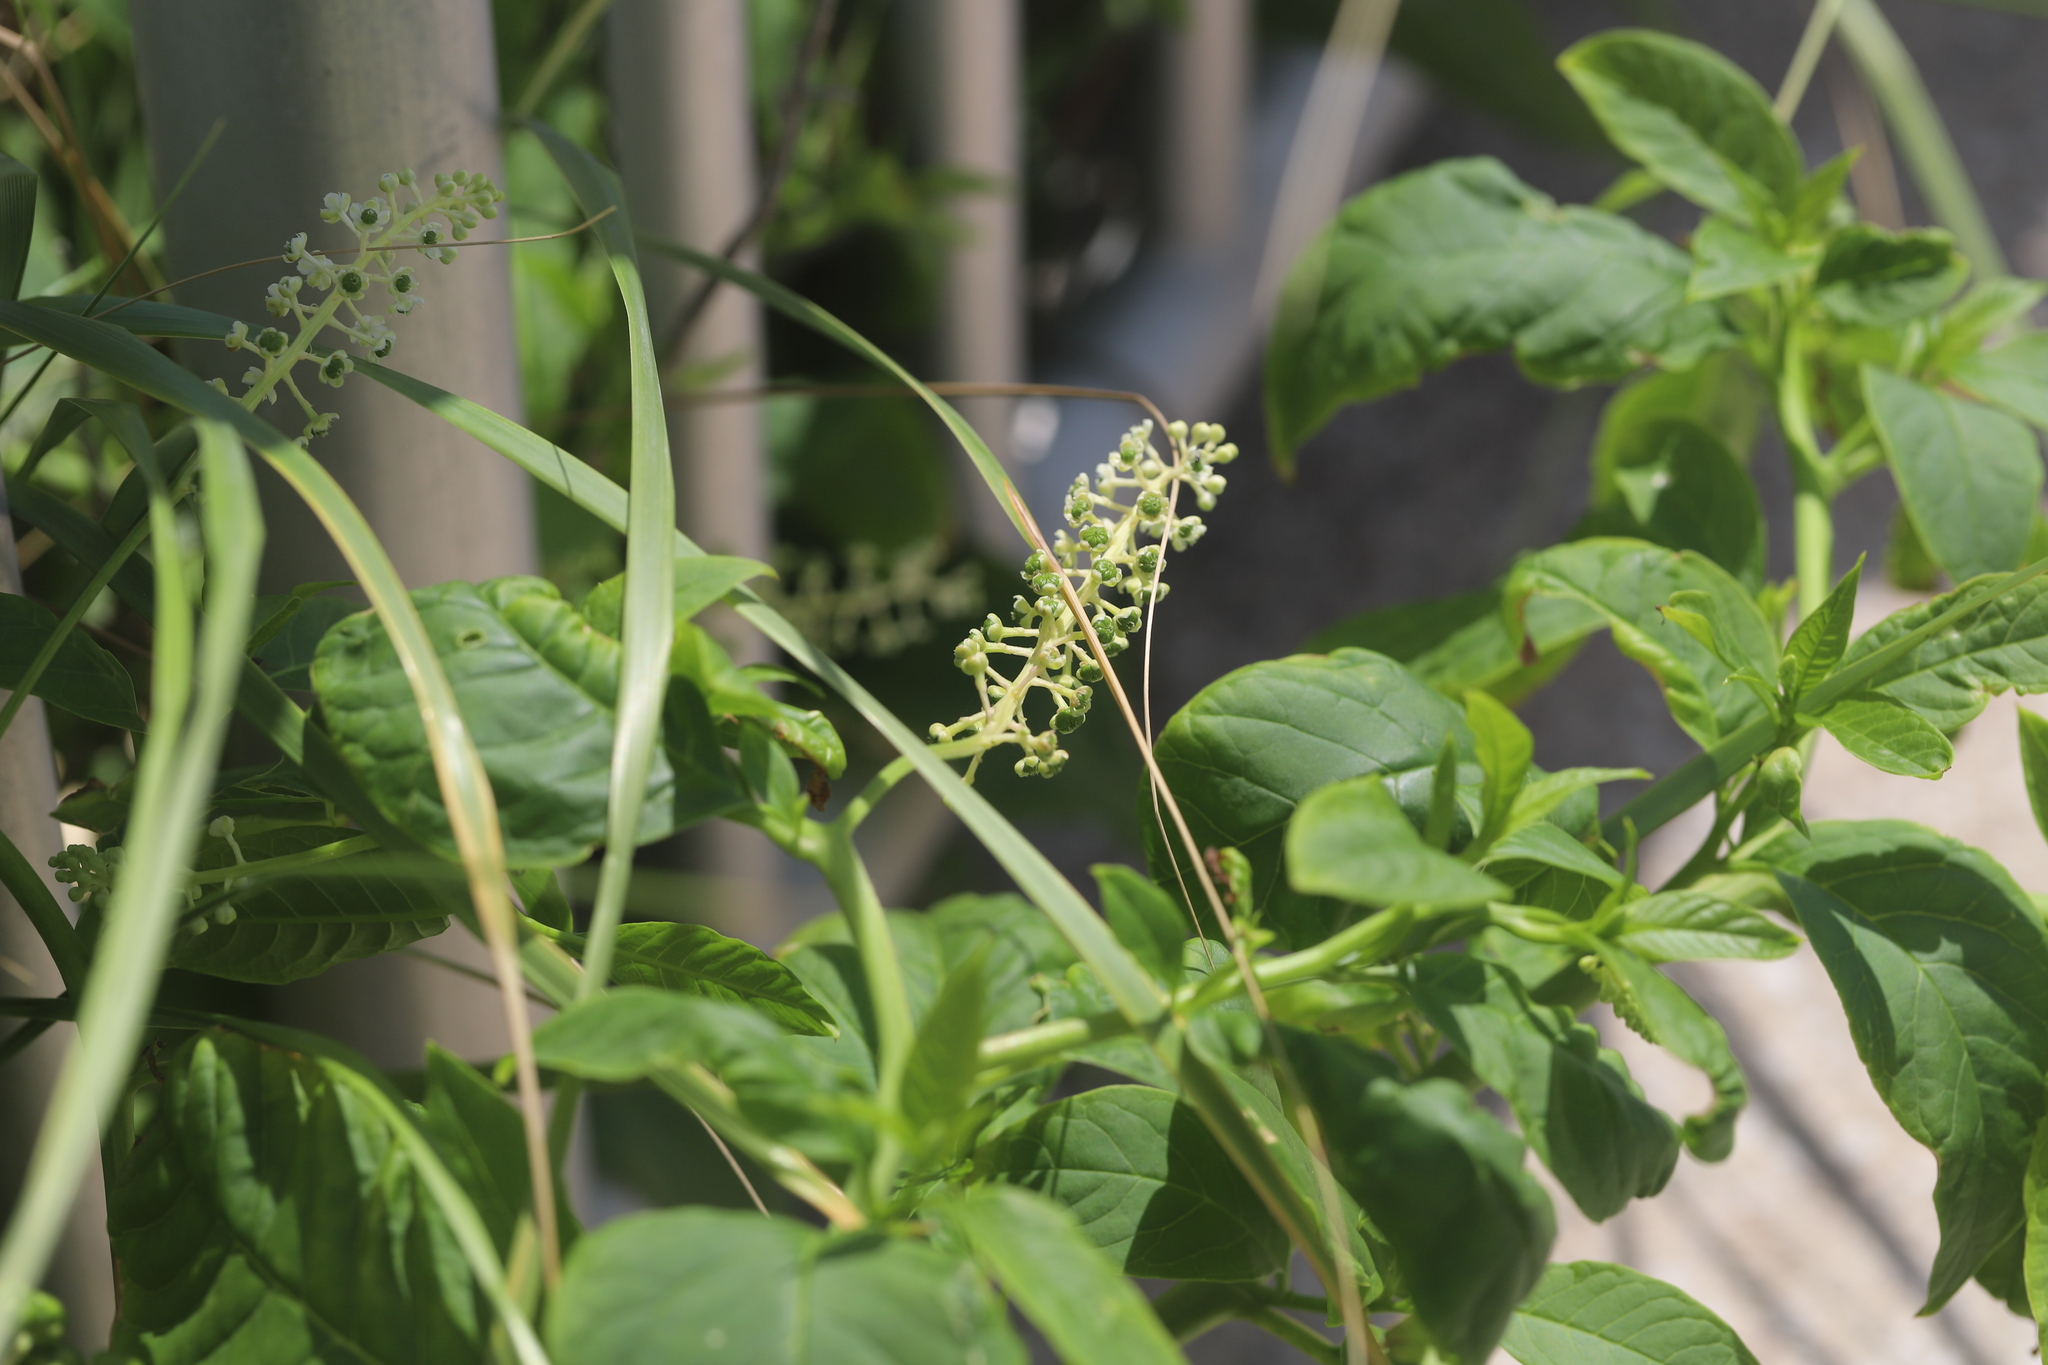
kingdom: Plantae
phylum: Tracheophyta
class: Magnoliopsida
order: Caryophyllales
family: Phytolaccaceae
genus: Phytolacca
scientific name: Phytolacca americana
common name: American pokeweed
